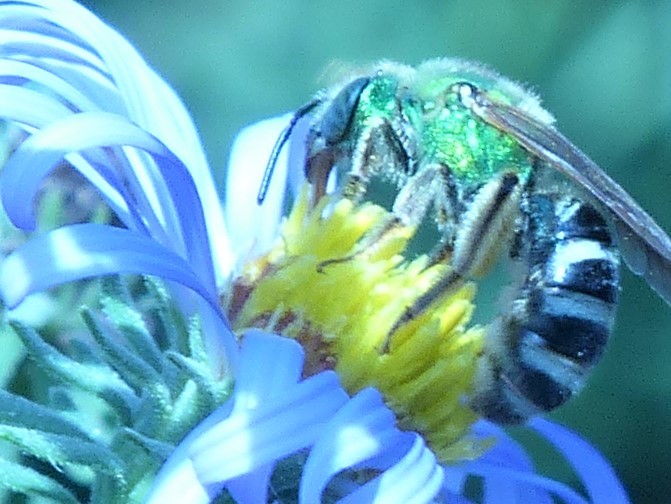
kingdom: Animalia
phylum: Arthropoda
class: Insecta
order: Hymenoptera
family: Halictidae
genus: Agapostemon
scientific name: Agapostemon virescens
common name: Bicolored striped sweat bee
